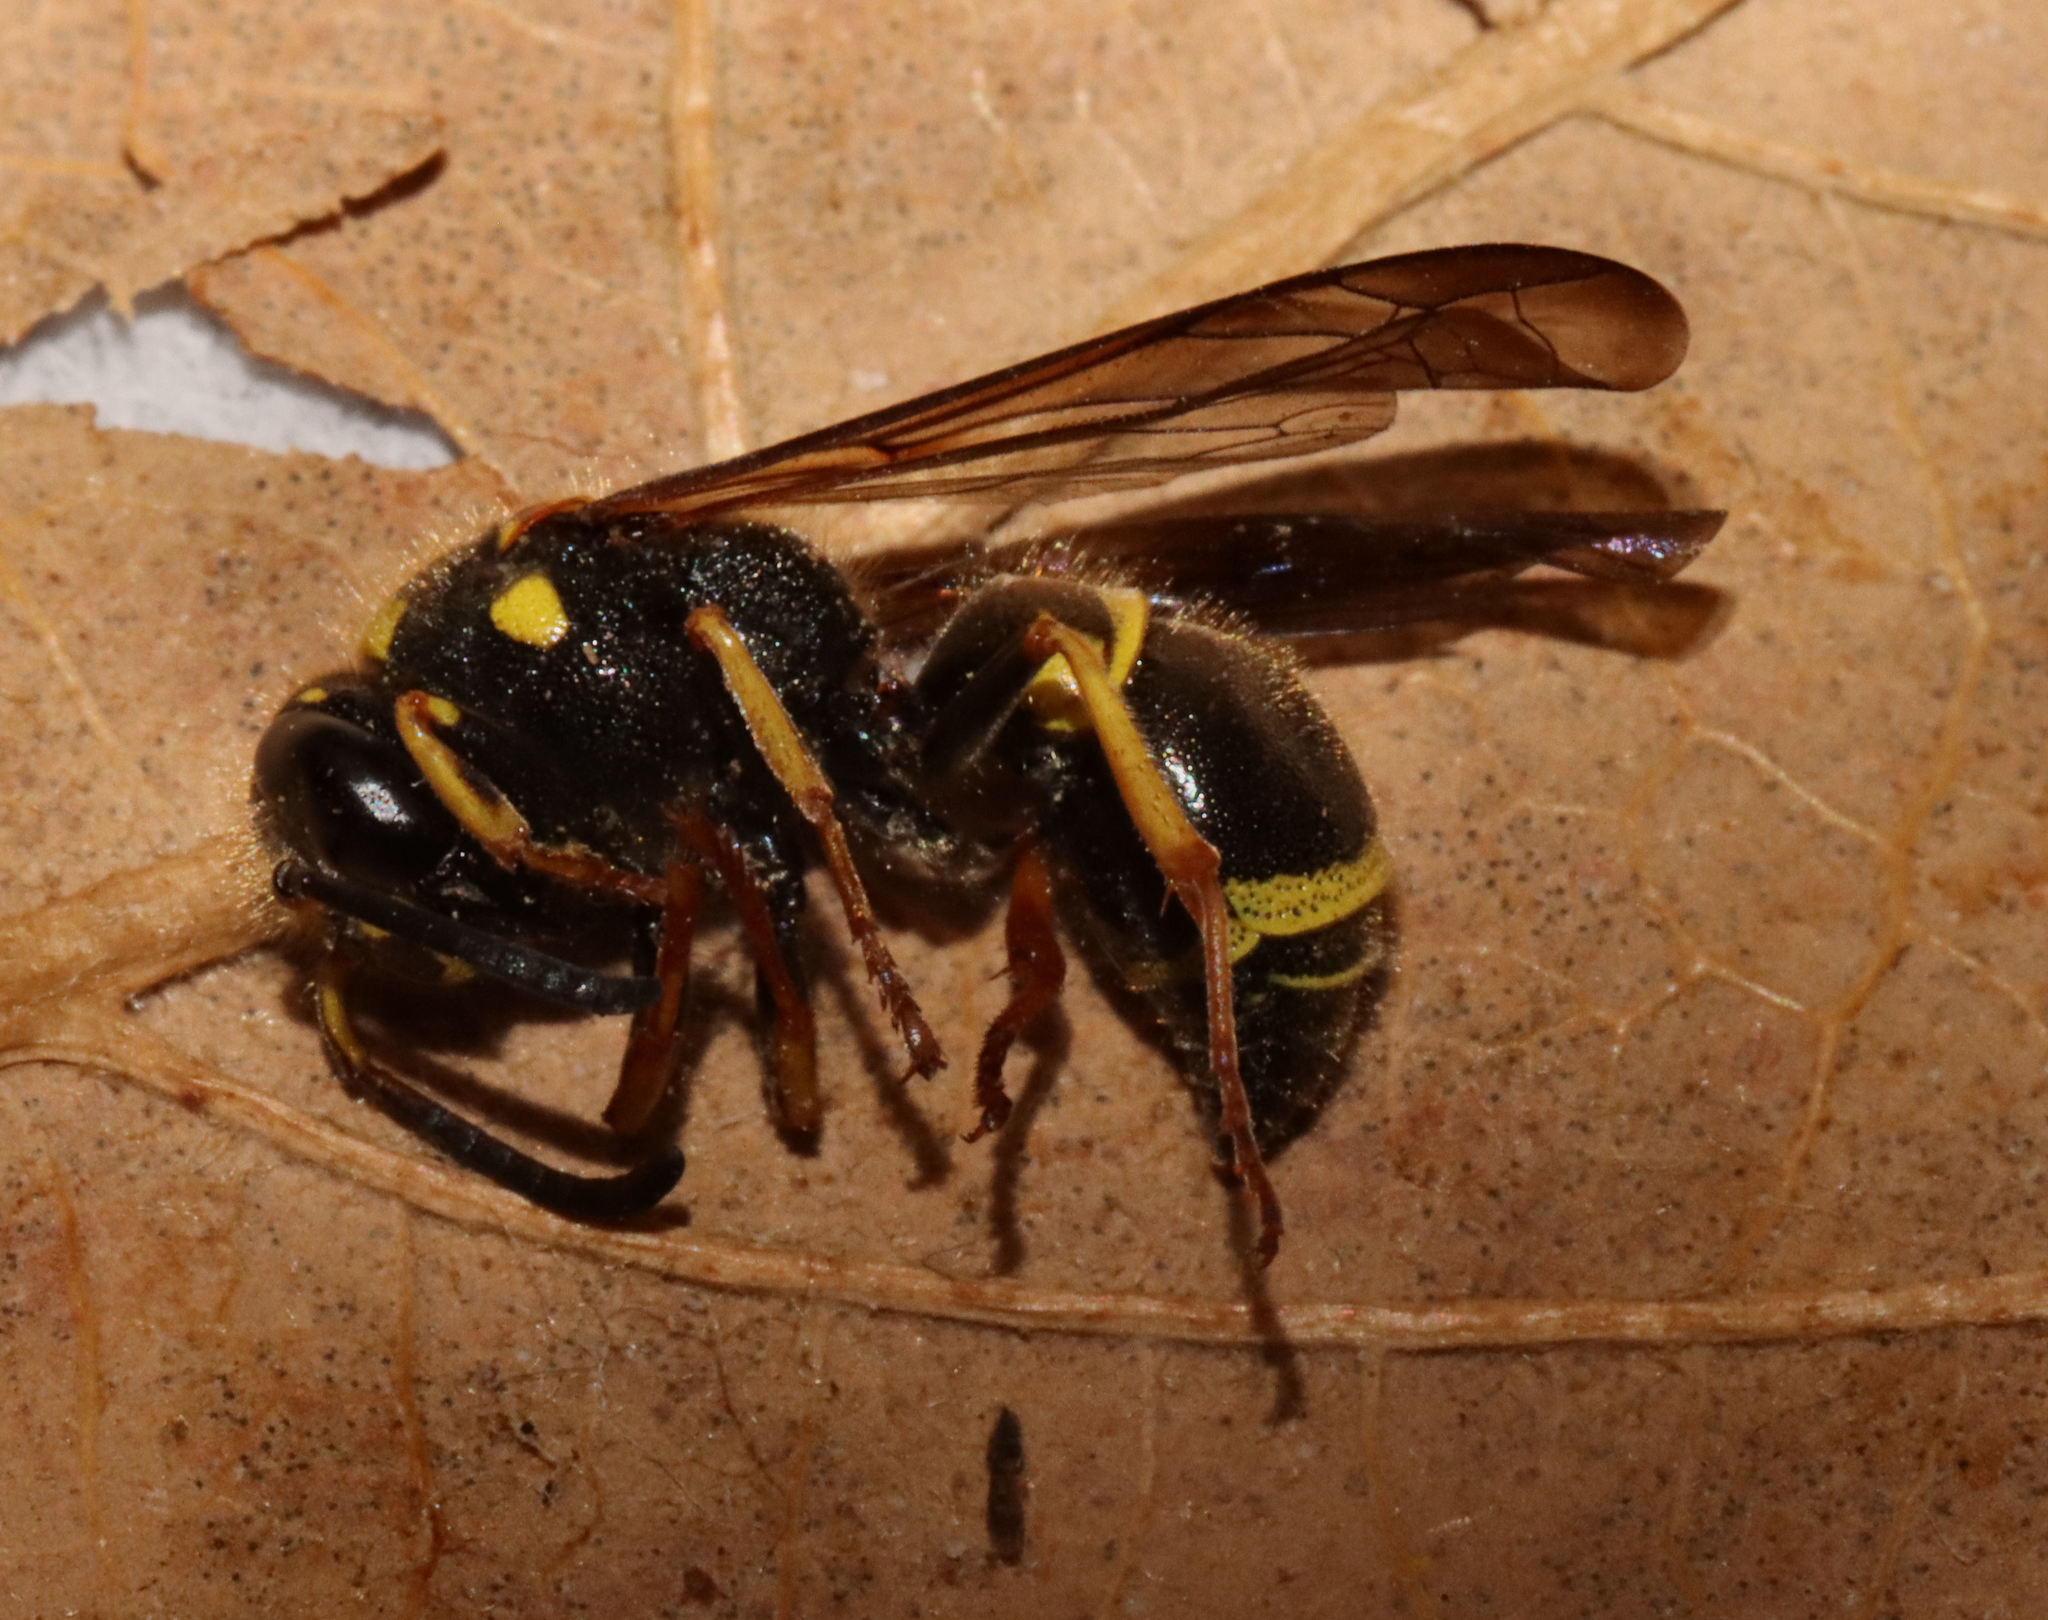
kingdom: Animalia
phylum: Arthropoda
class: Insecta
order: Hymenoptera
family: Vespidae
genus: Ancistrocerus
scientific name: Ancistrocerus campestris
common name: Smiling mason wasp
